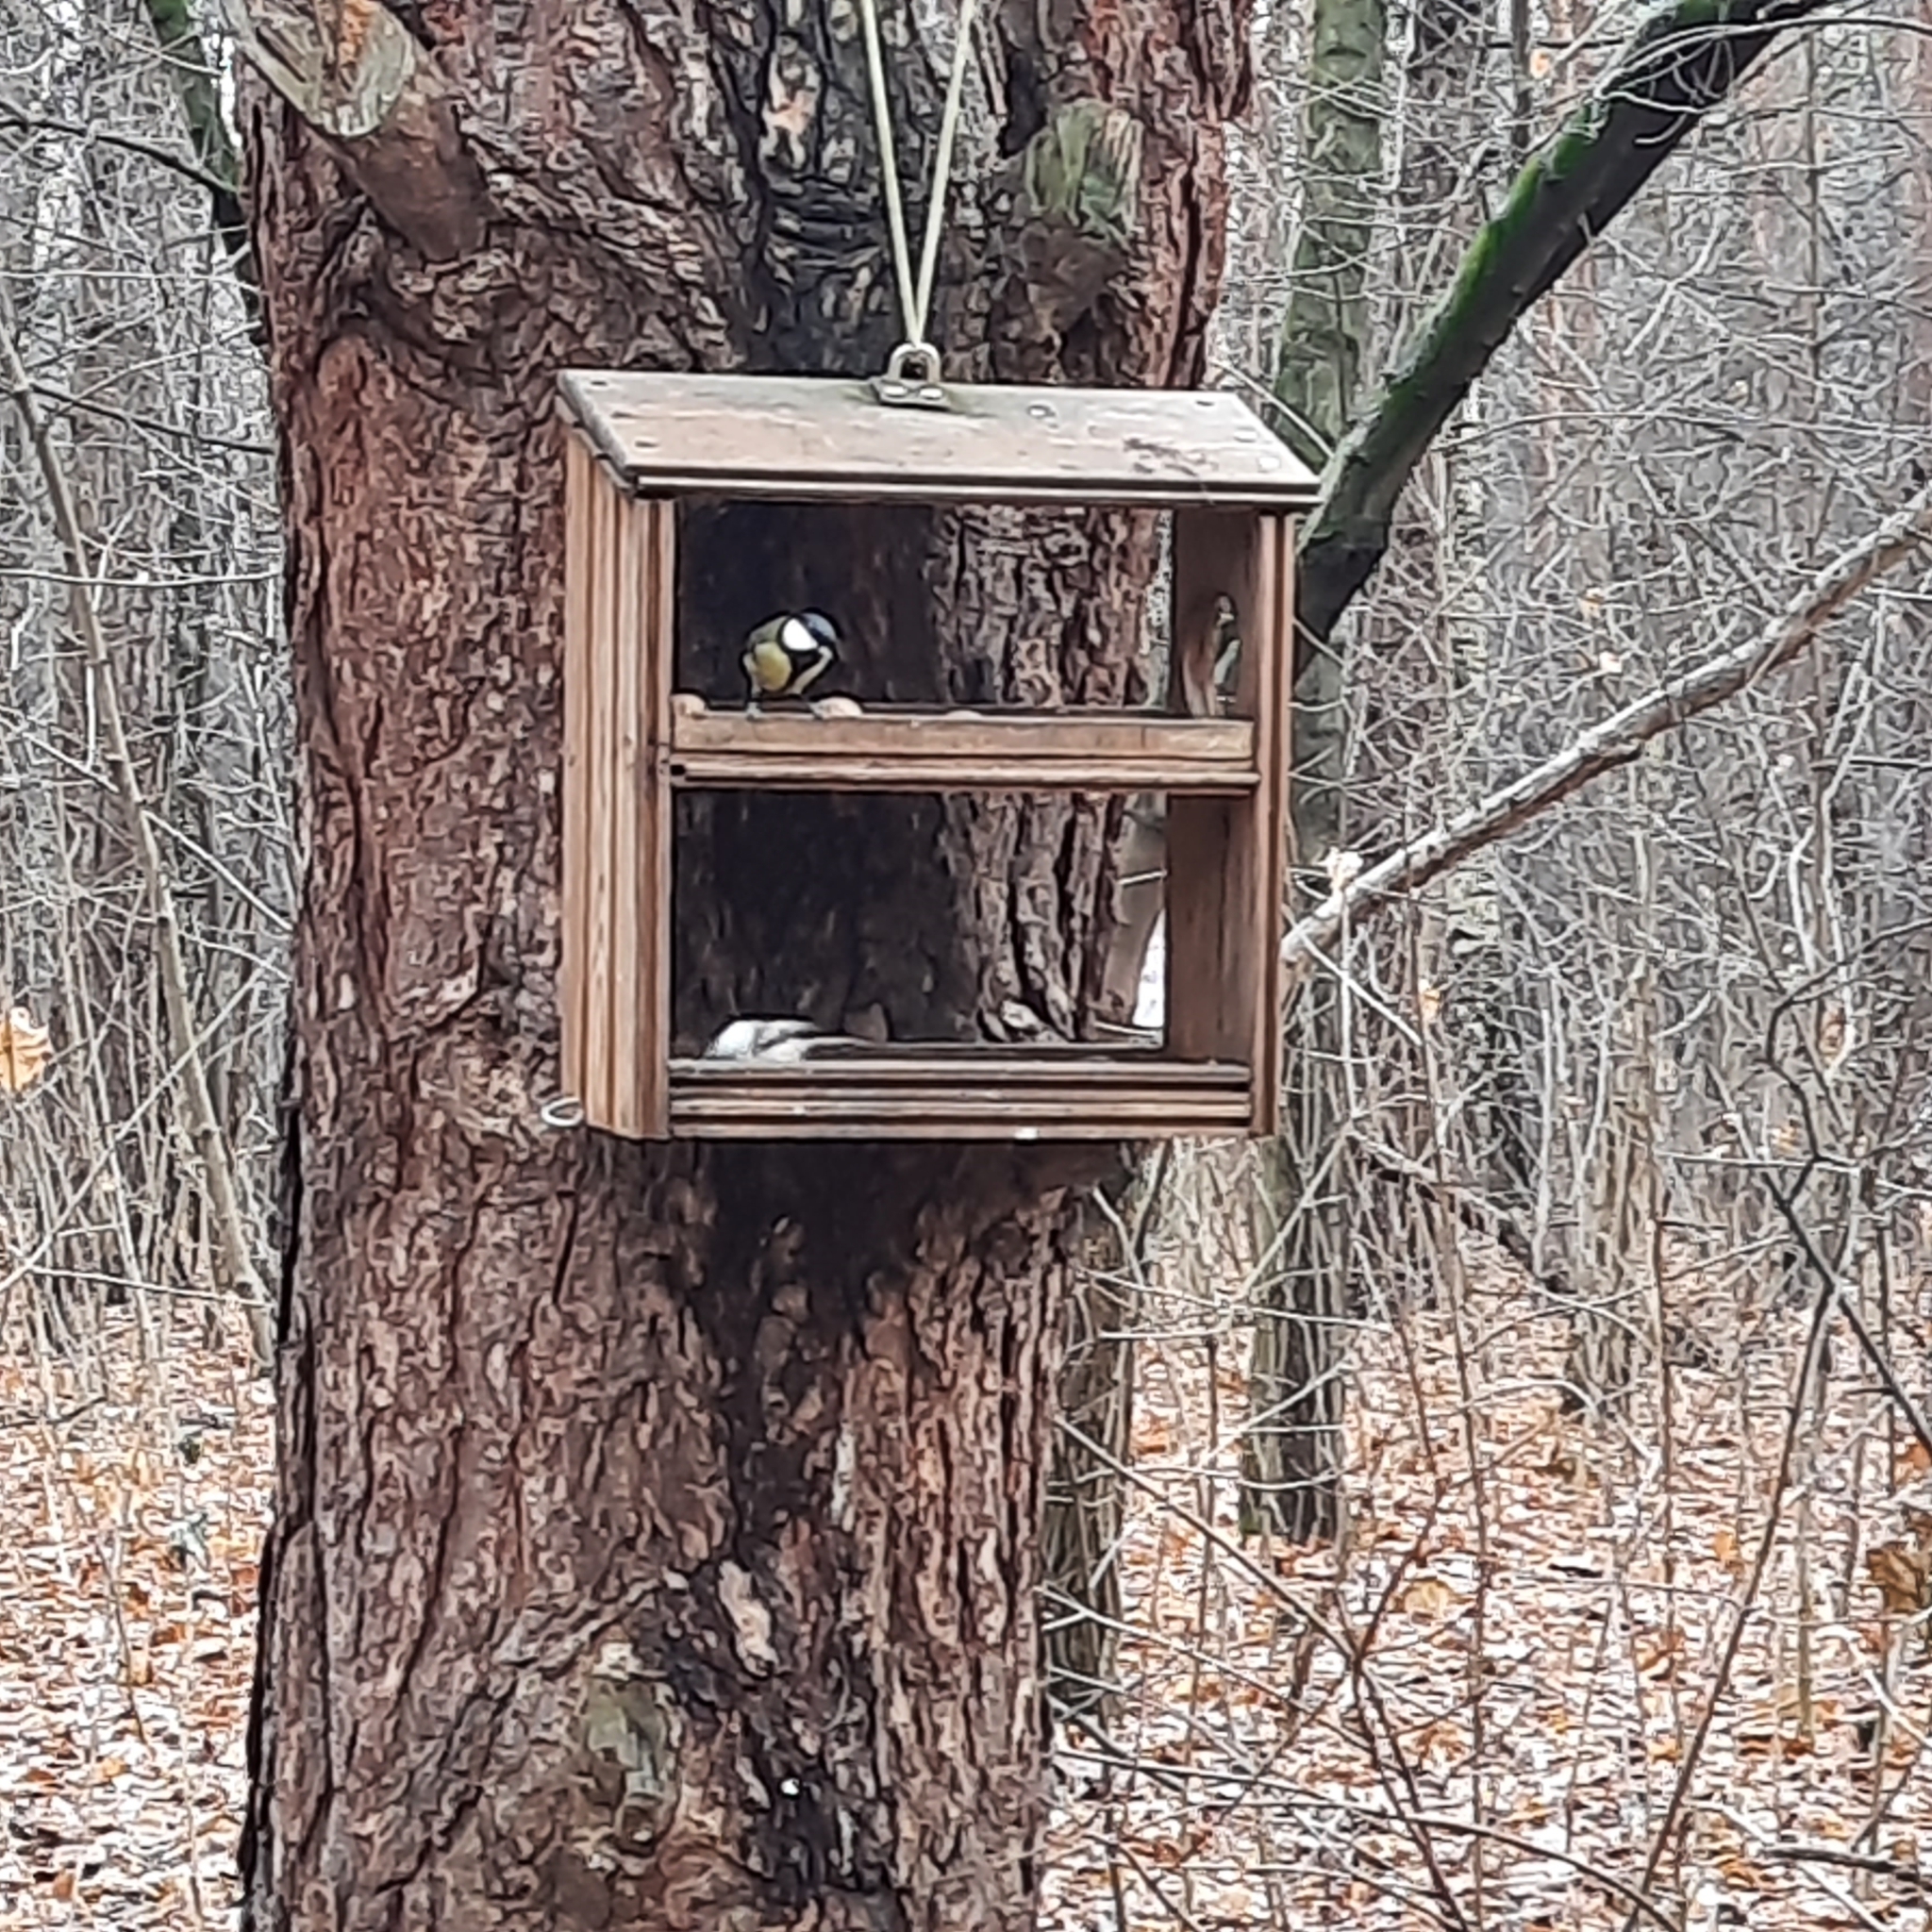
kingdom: Animalia
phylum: Chordata
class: Aves
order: Passeriformes
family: Paridae
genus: Parus
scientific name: Parus major
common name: Great tit
